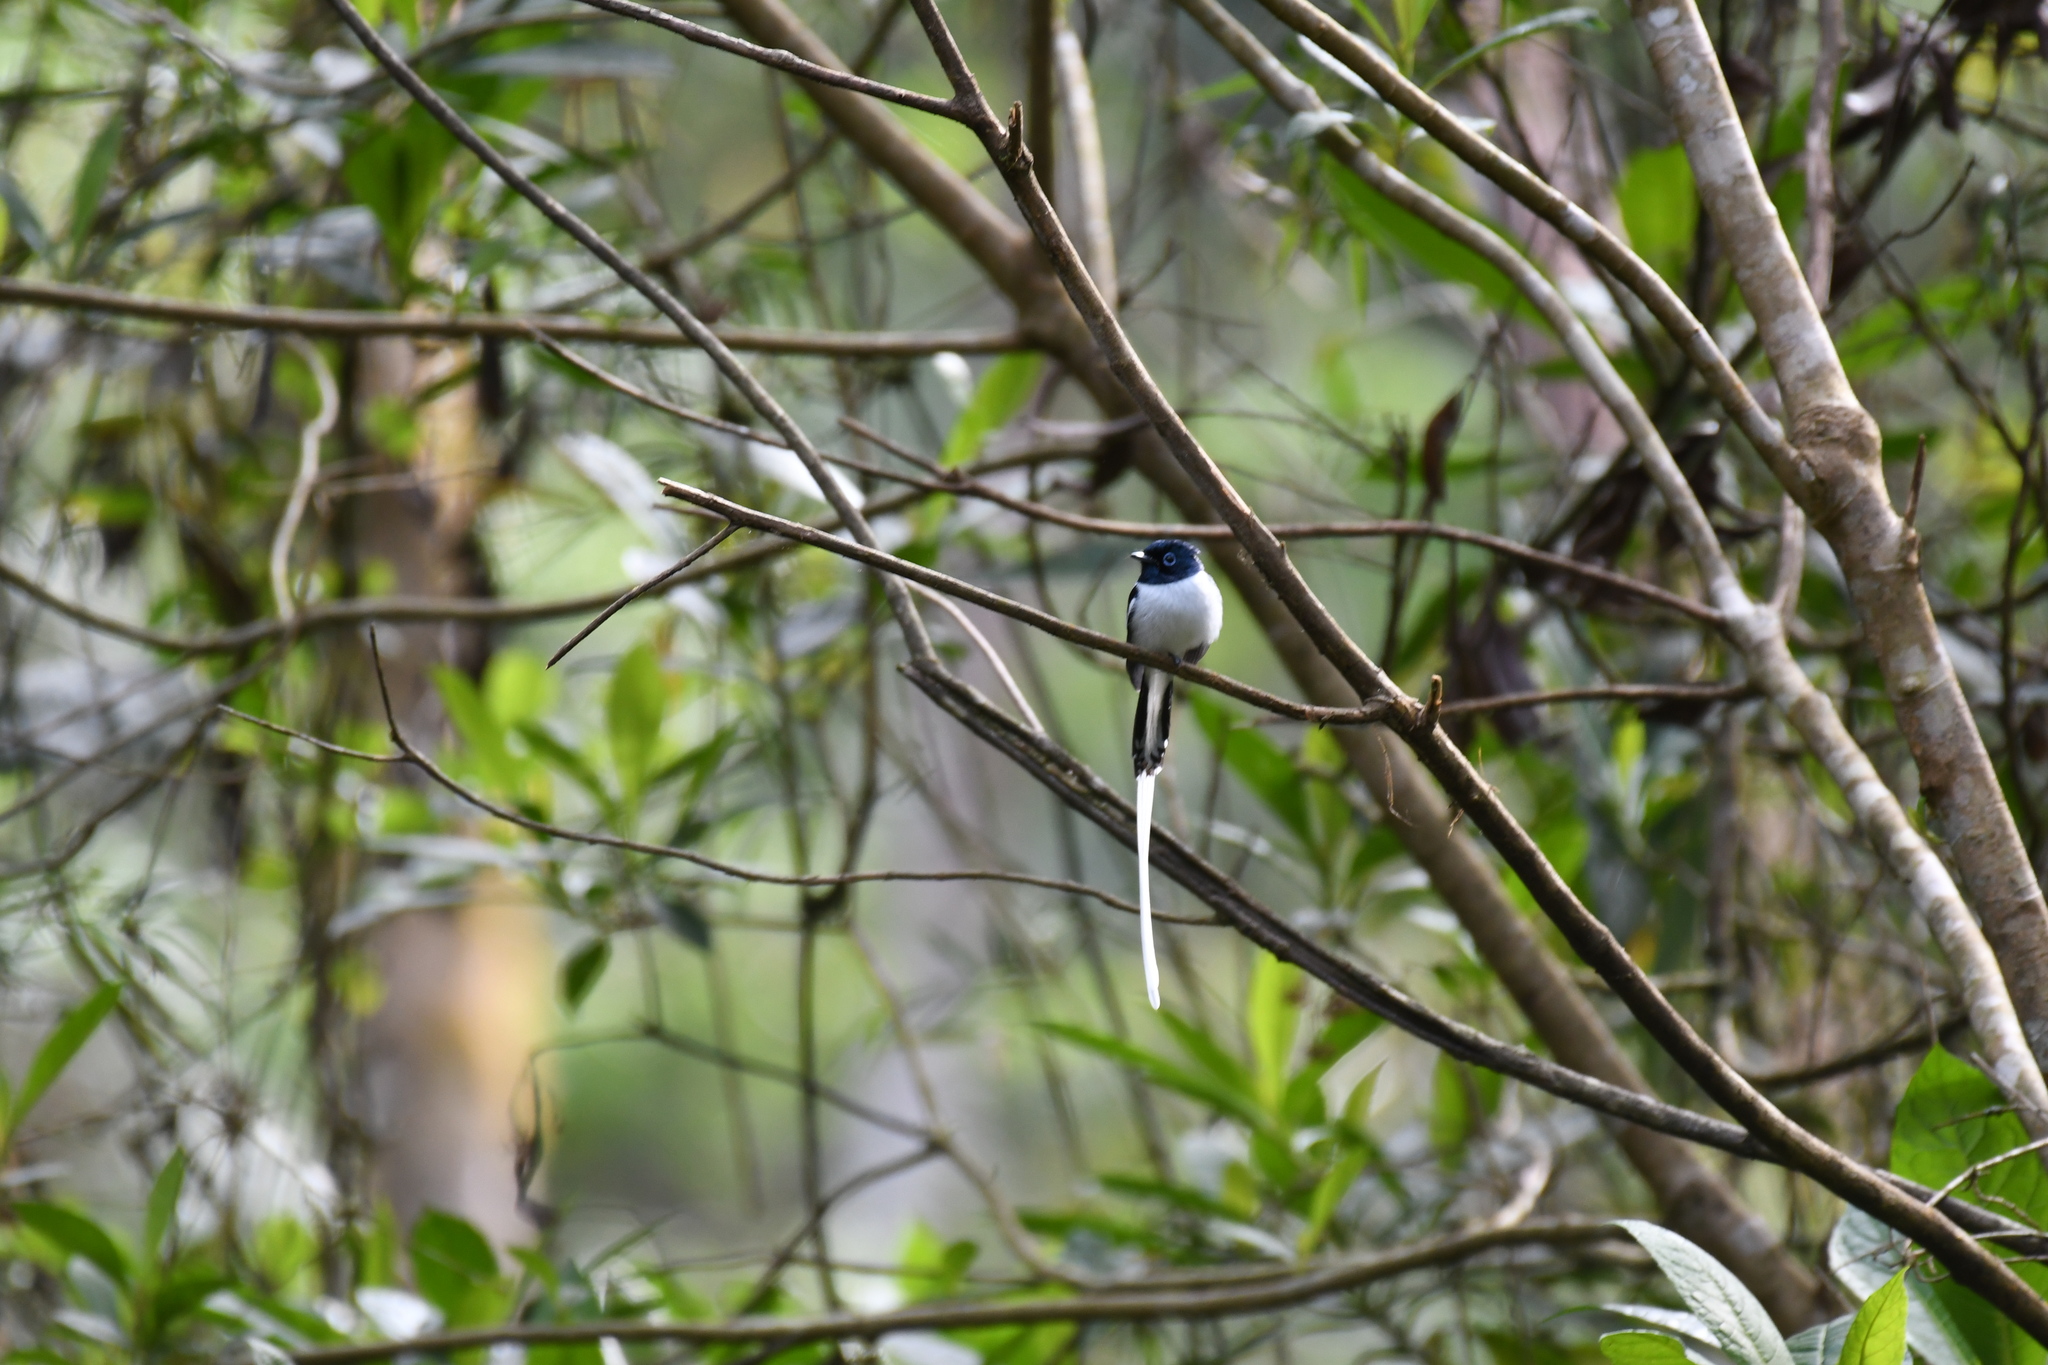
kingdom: Animalia
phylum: Chordata
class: Aves
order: Passeriformes
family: Monarchidae
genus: Terpsiphone
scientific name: Terpsiphone mutata
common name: Malagasy paradise flycatcher
